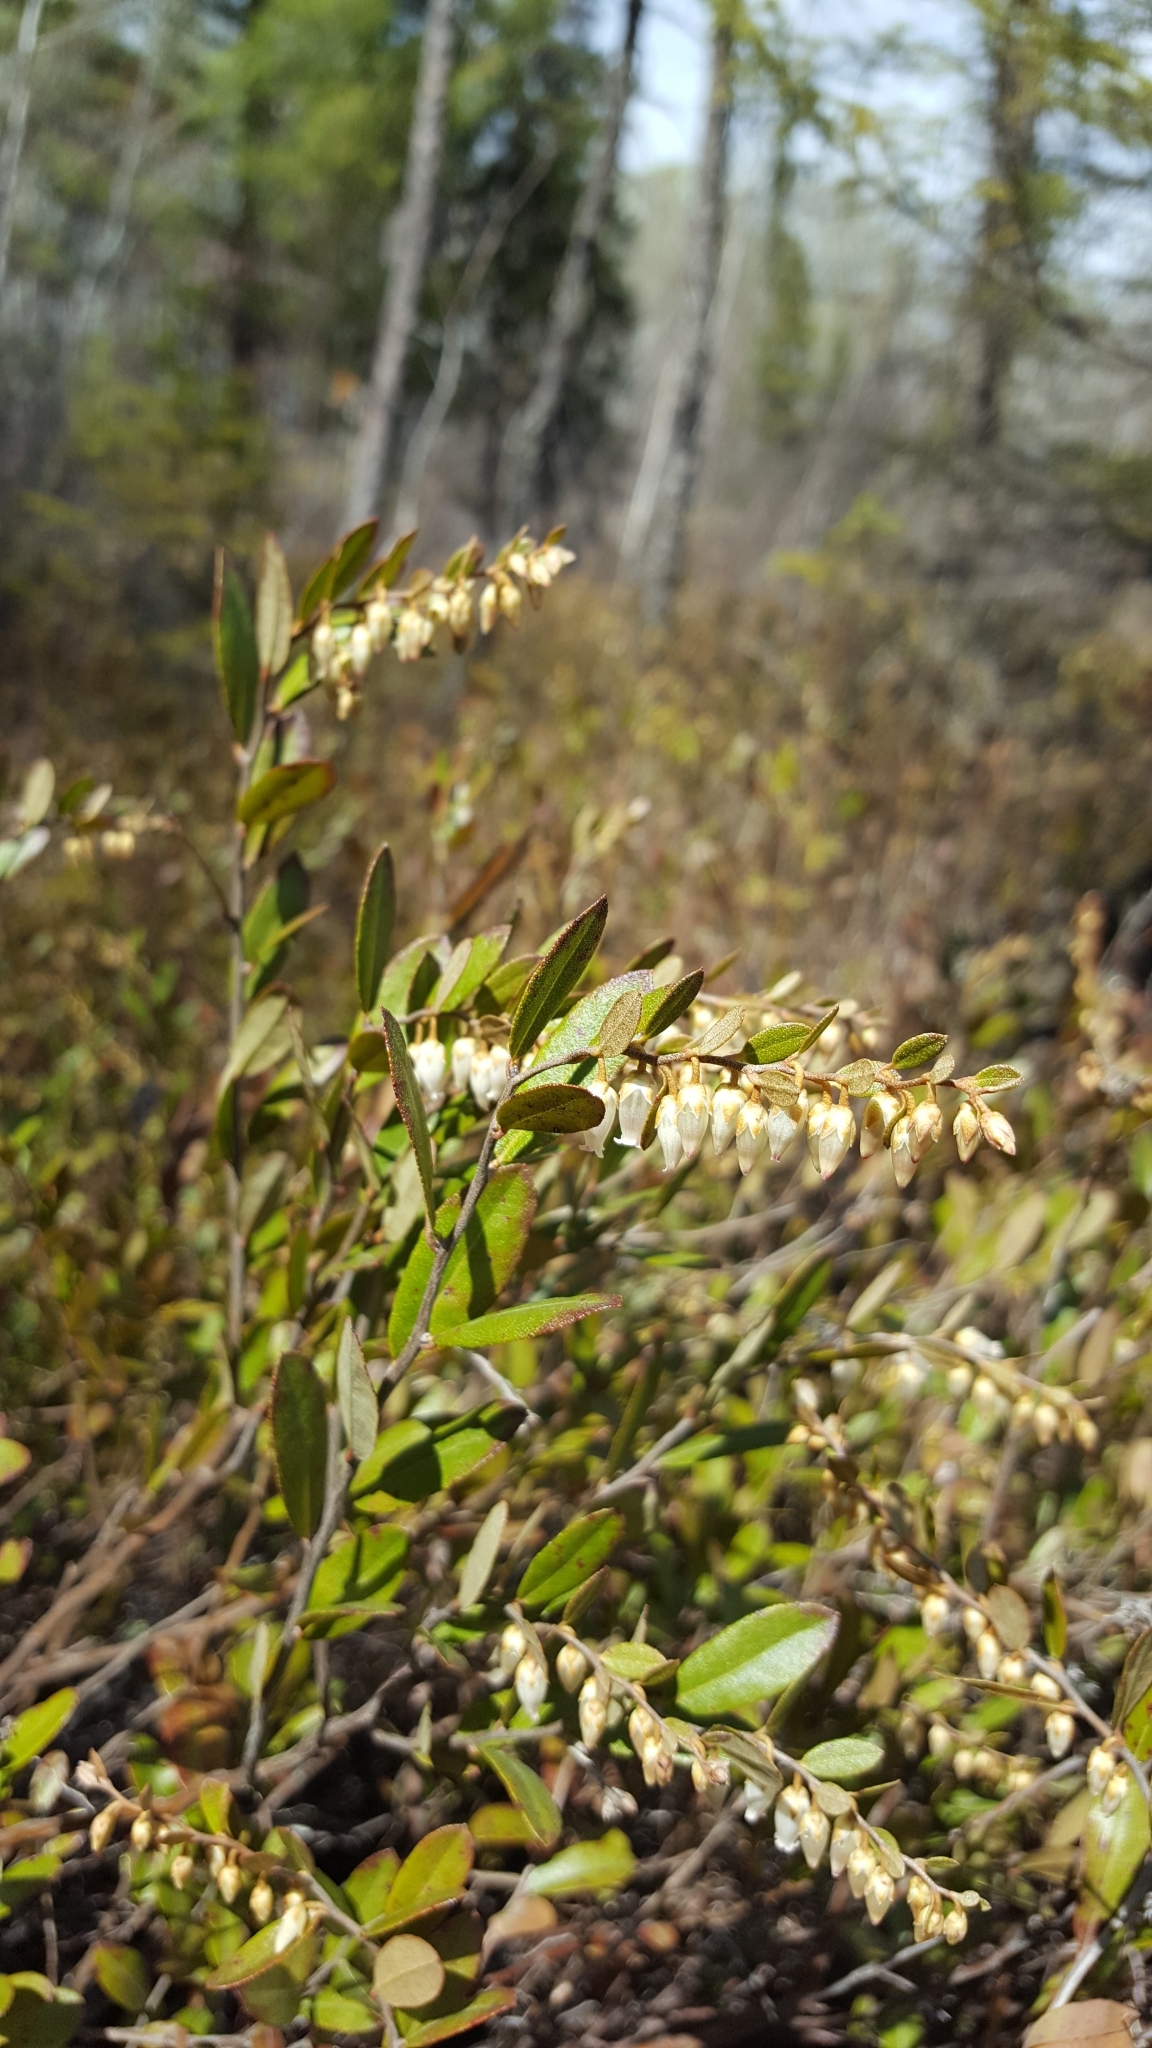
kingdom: Plantae
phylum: Tracheophyta
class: Magnoliopsida
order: Ericales
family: Ericaceae
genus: Chamaedaphne
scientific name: Chamaedaphne calyculata
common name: Leatherleaf
